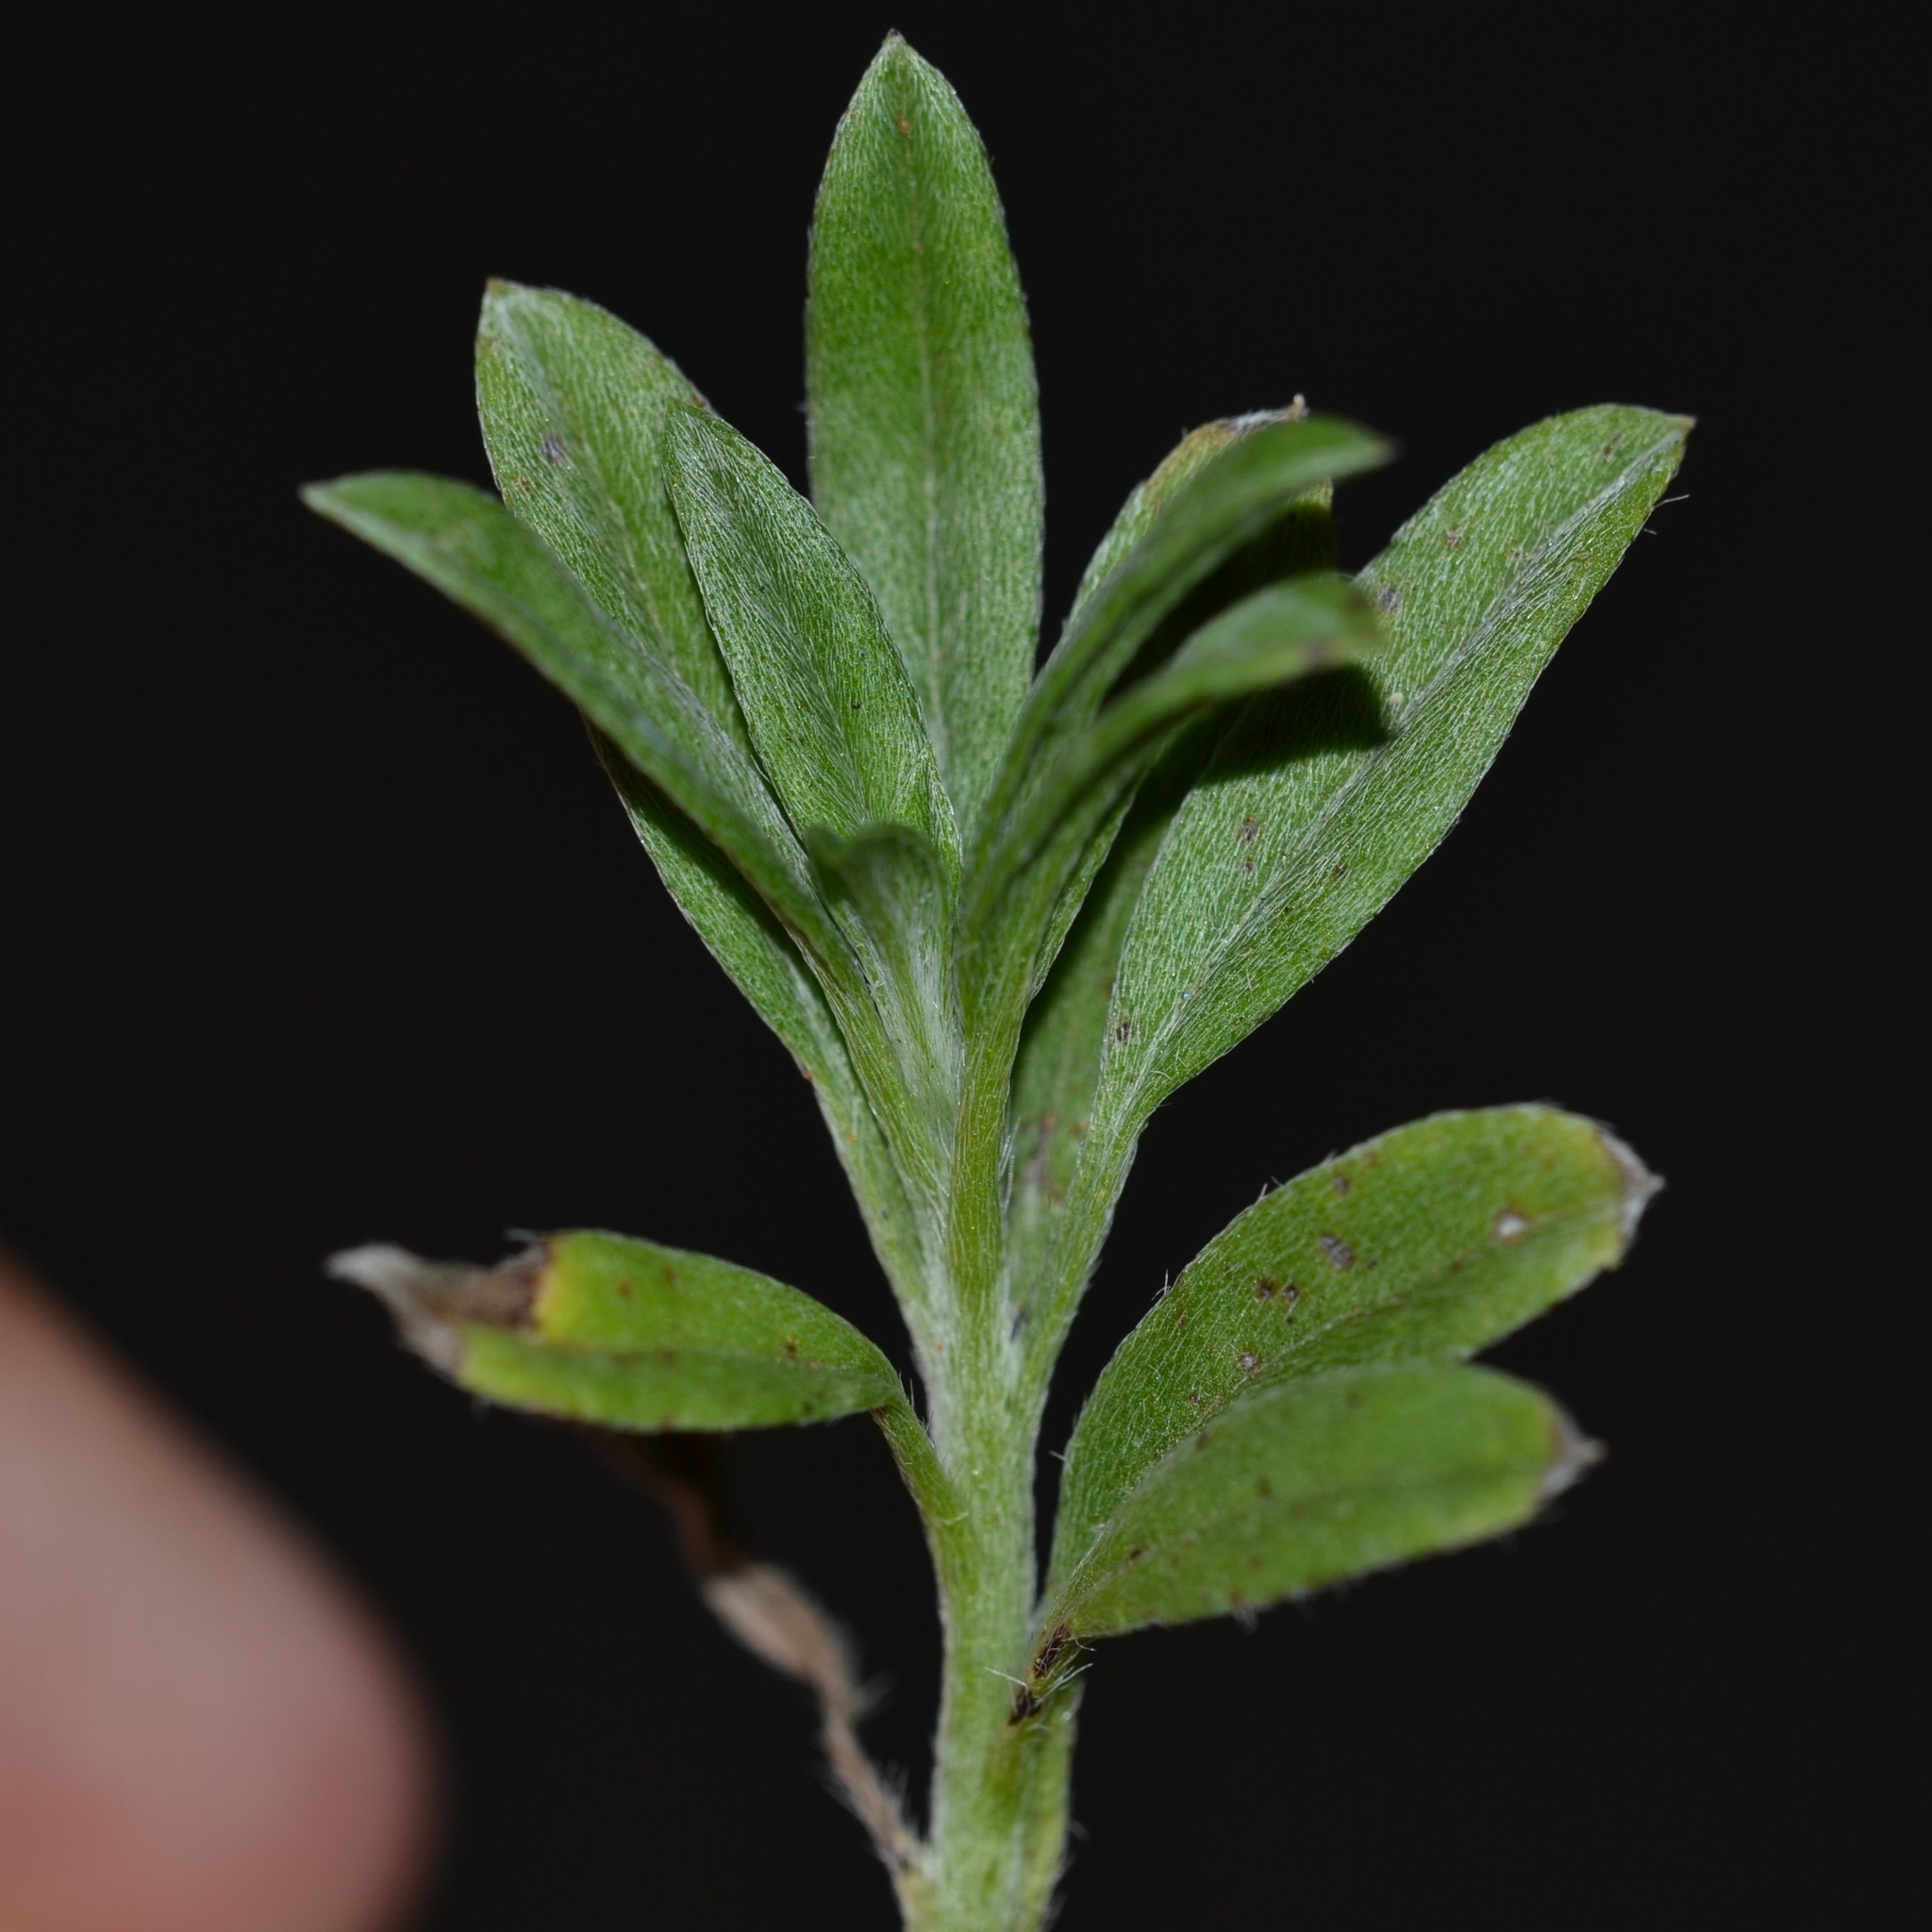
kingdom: Plantae
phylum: Tracheophyta
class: Magnoliopsida
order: Boraginales
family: Heliotropiaceae
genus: Euploca
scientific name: Euploca procumbens
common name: Fourspike heliotrope
